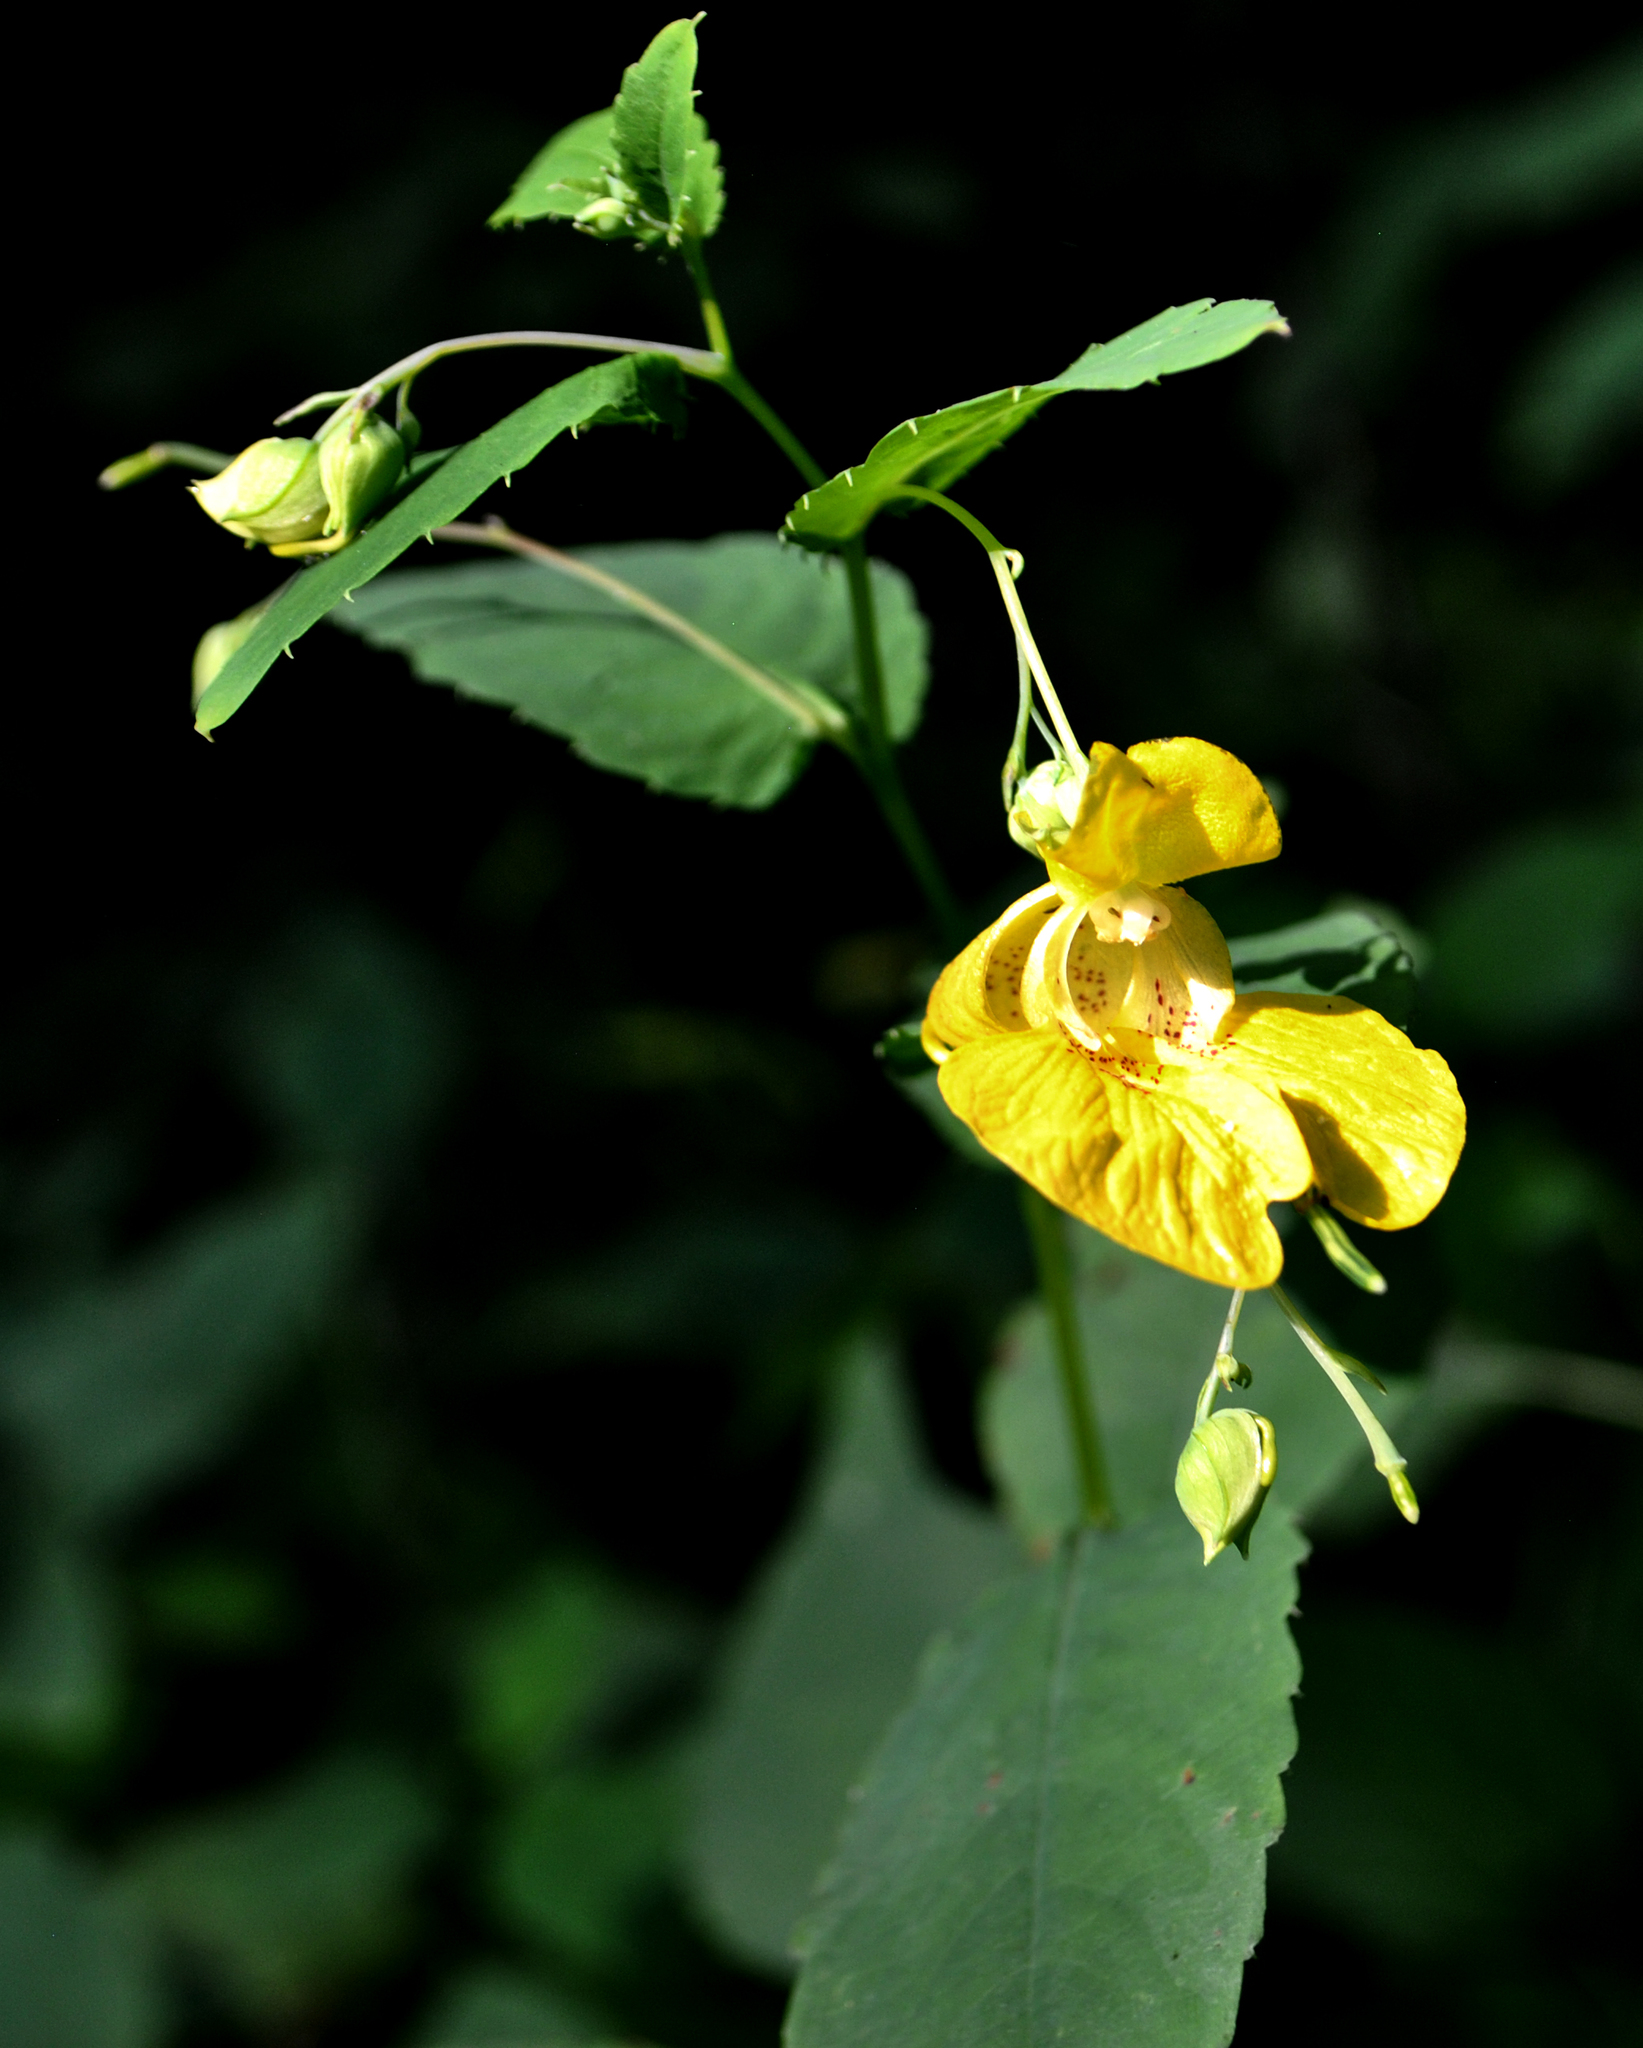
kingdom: Plantae
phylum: Tracheophyta
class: Magnoliopsida
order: Ericales
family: Balsaminaceae
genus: Impatiens
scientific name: Impatiens pallida
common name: Pale snapweed
